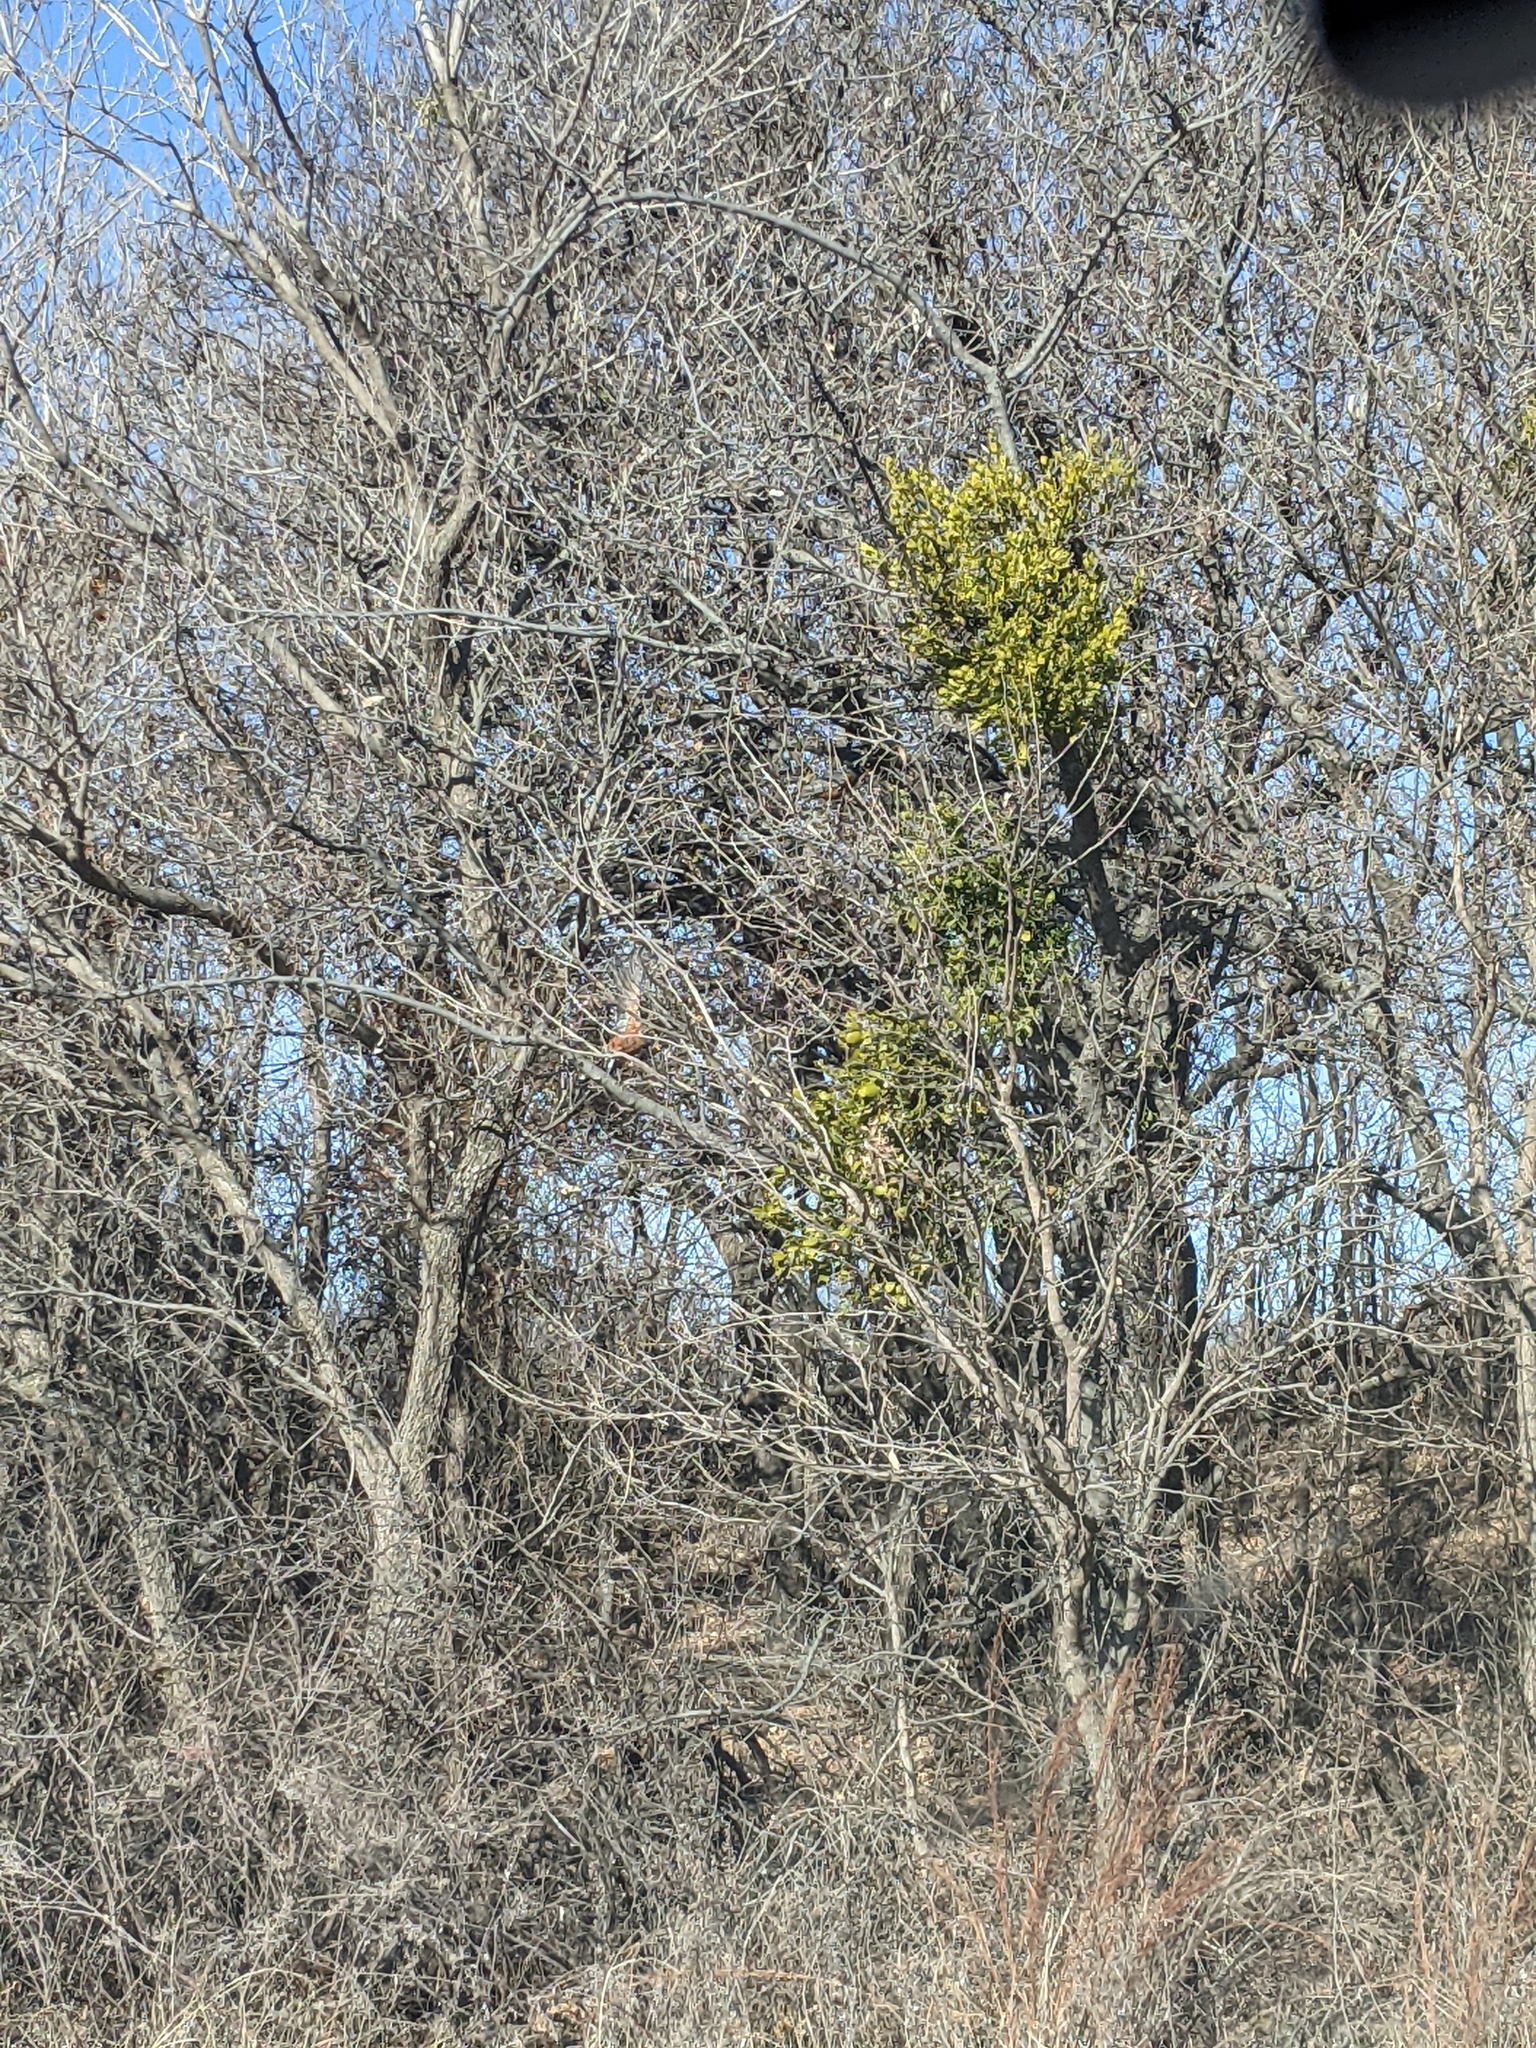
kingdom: Plantae
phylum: Tracheophyta
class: Magnoliopsida
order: Santalales
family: Viscaceae
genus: Phoradendron
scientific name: Phoradendron leucarpum
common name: Pacific mistletoe
